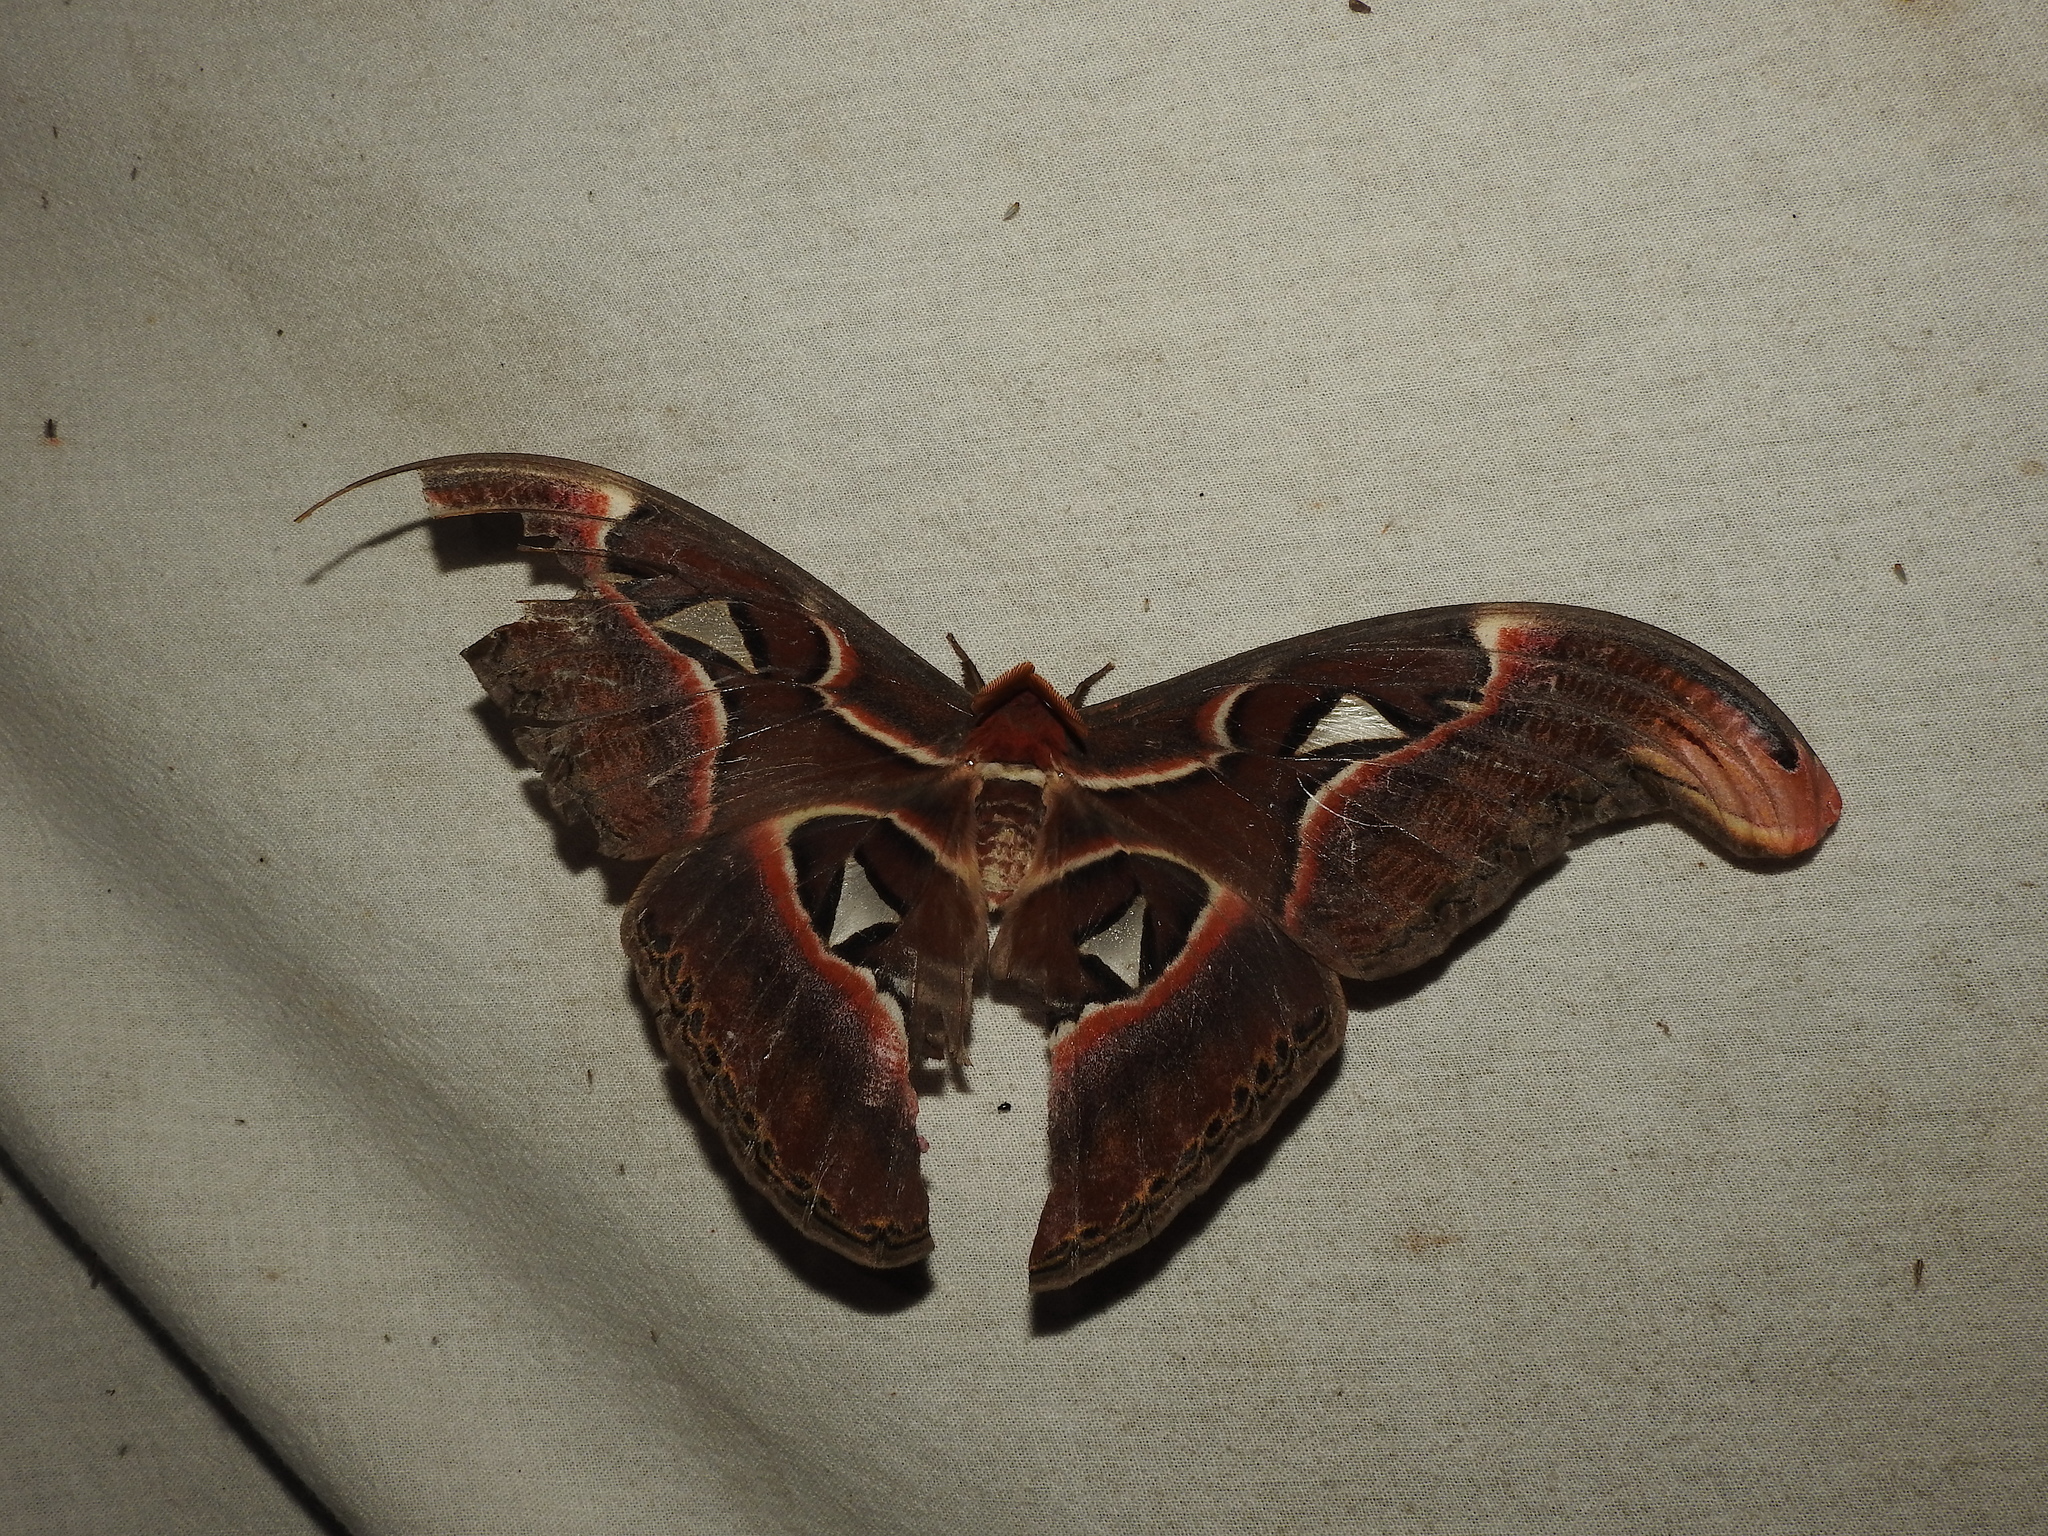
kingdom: Animalia
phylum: Arthropoda
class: Insecta
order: Lepidoptera
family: Saturniidae
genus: Attacus
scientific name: Attacus taprobanis
